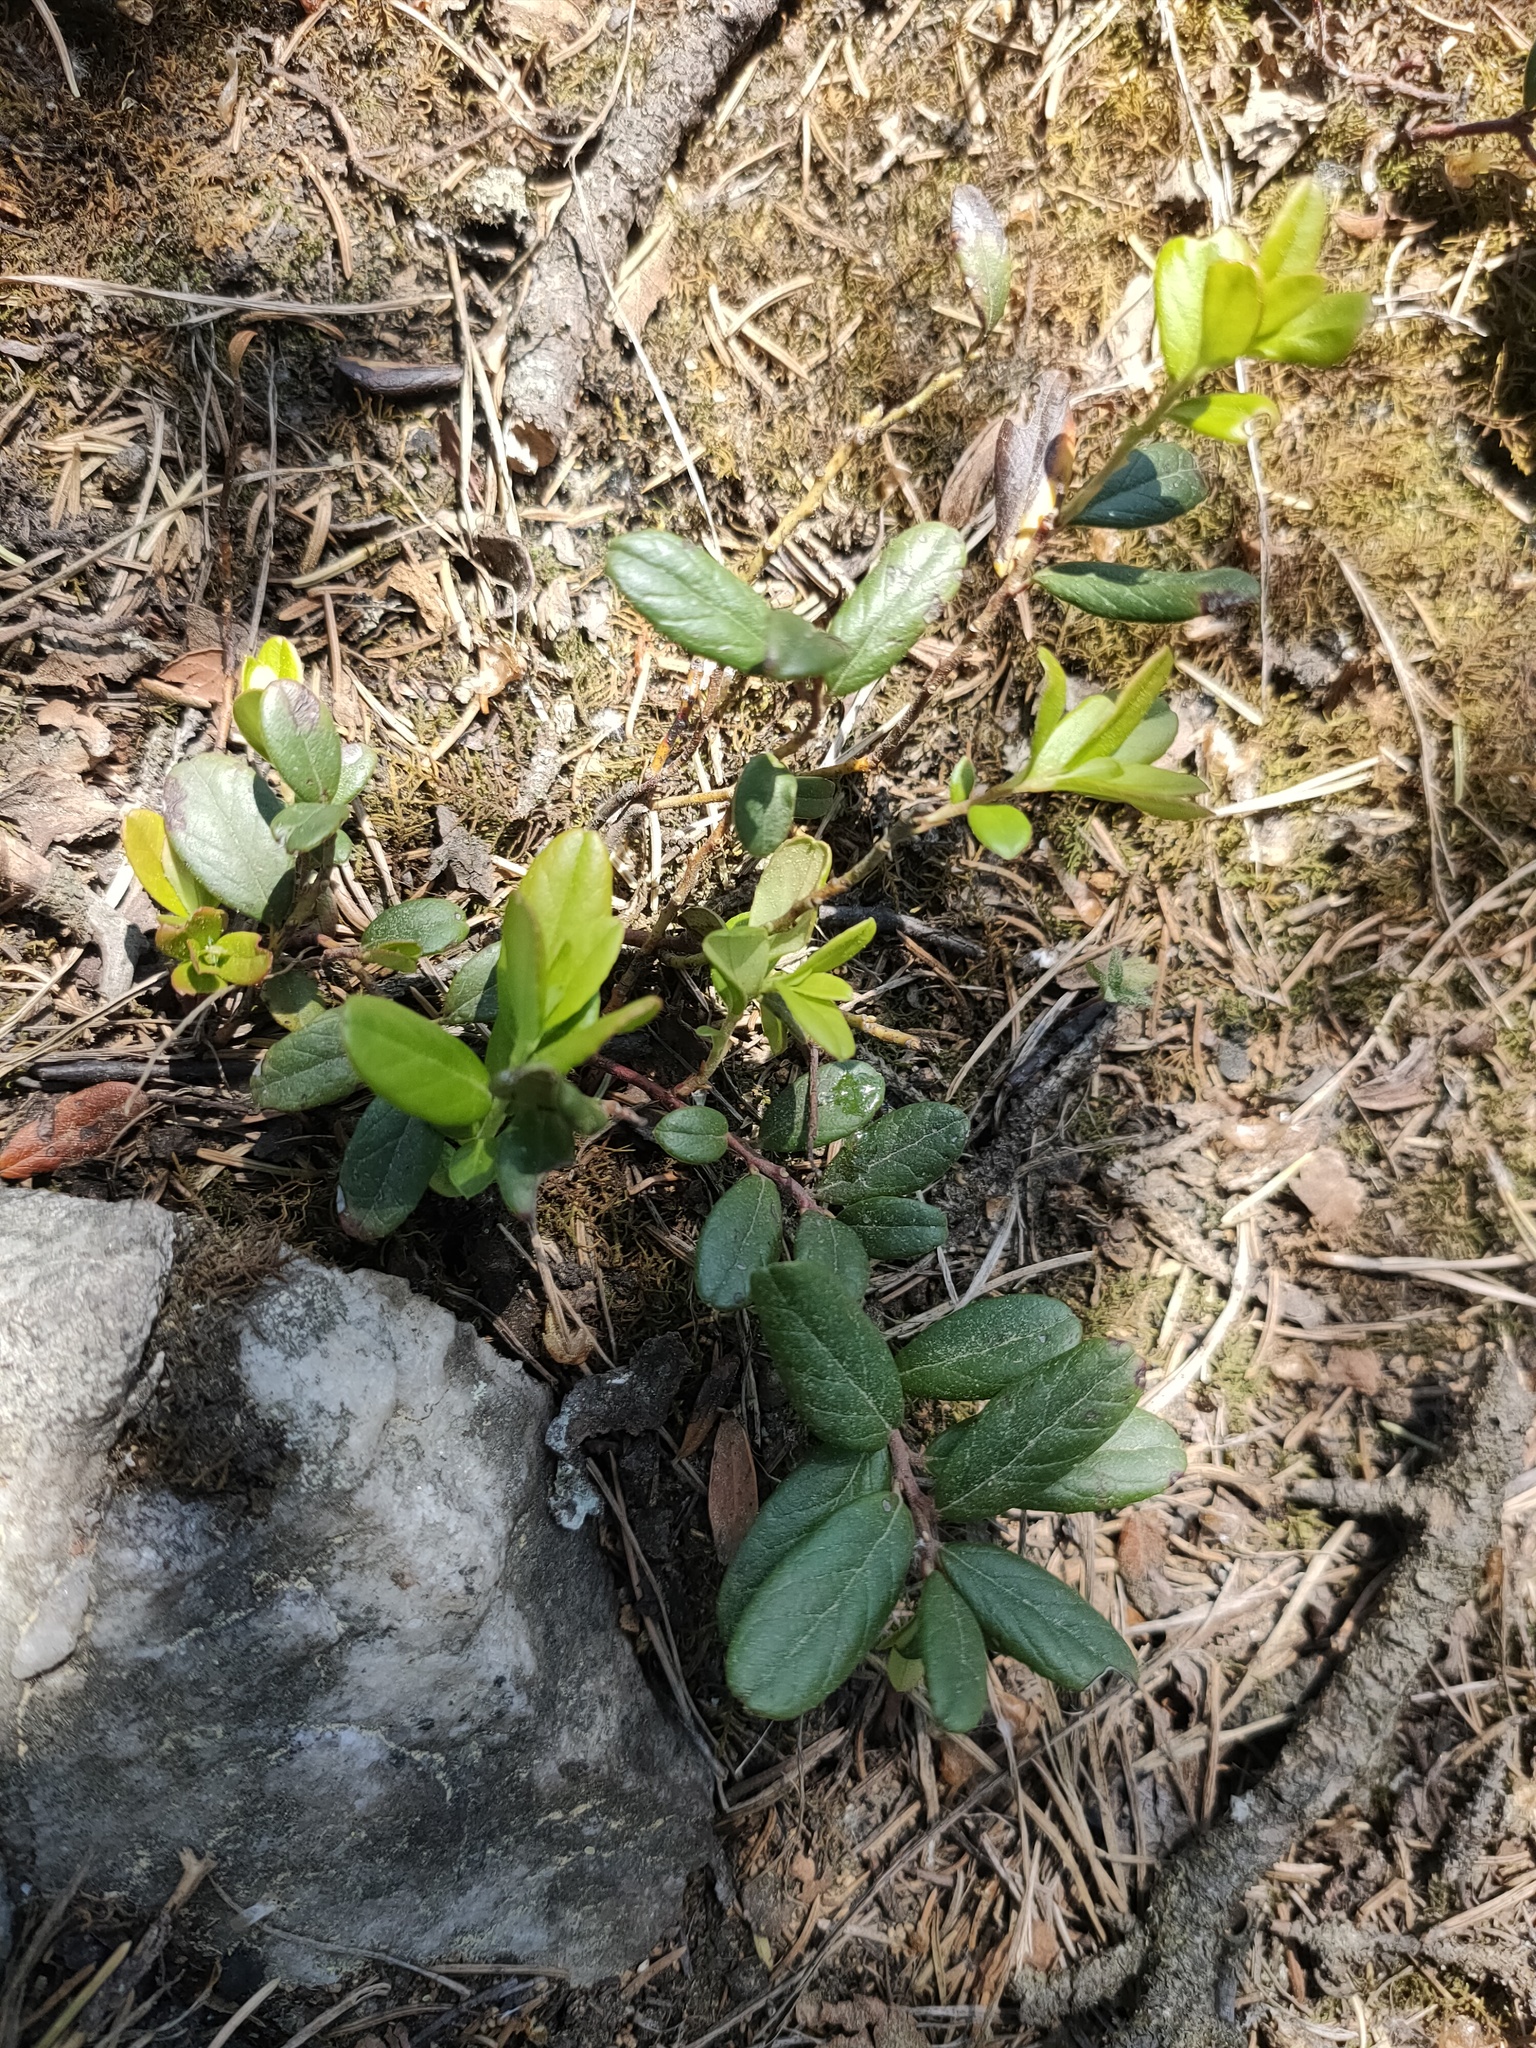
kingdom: Plantae
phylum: Tracheophyta
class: Magnoliopsida
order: Ericales
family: Ericaceae
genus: Vaccinium
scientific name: Vaccinium vitis-idaea
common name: Cowberry
